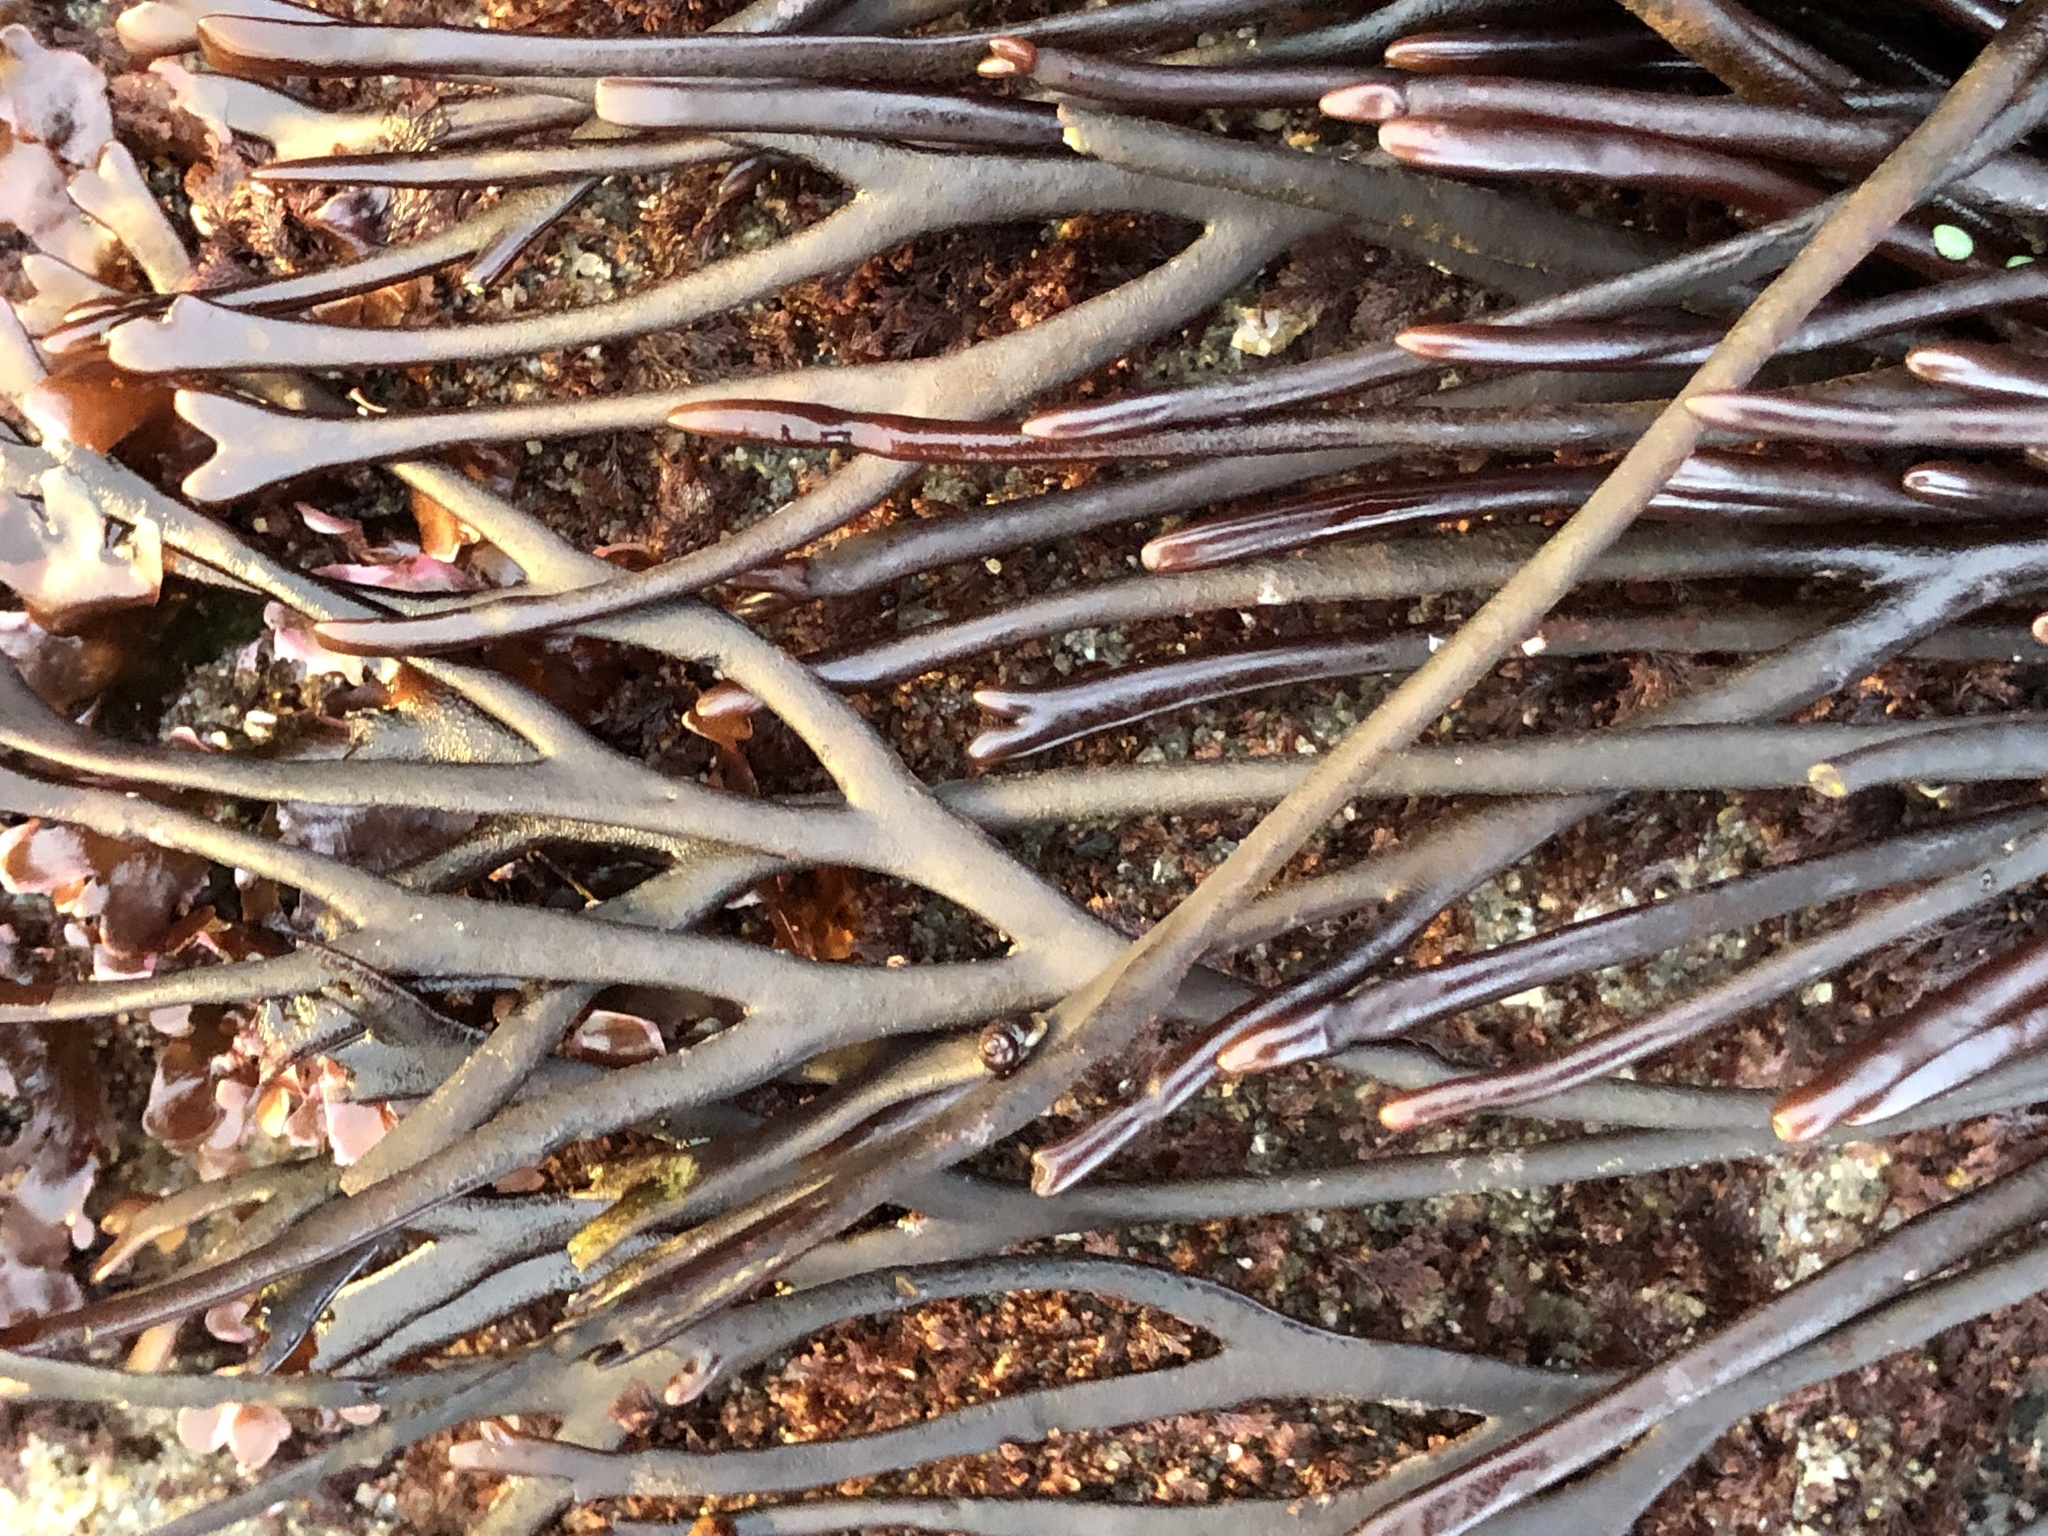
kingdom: Plantae
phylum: Rhodophyta
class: Florideophyceae
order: Gigartinales
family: Phyllophoraceae
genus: Ahnfeltiopsis
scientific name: Ahnfeltiopsis linearis
